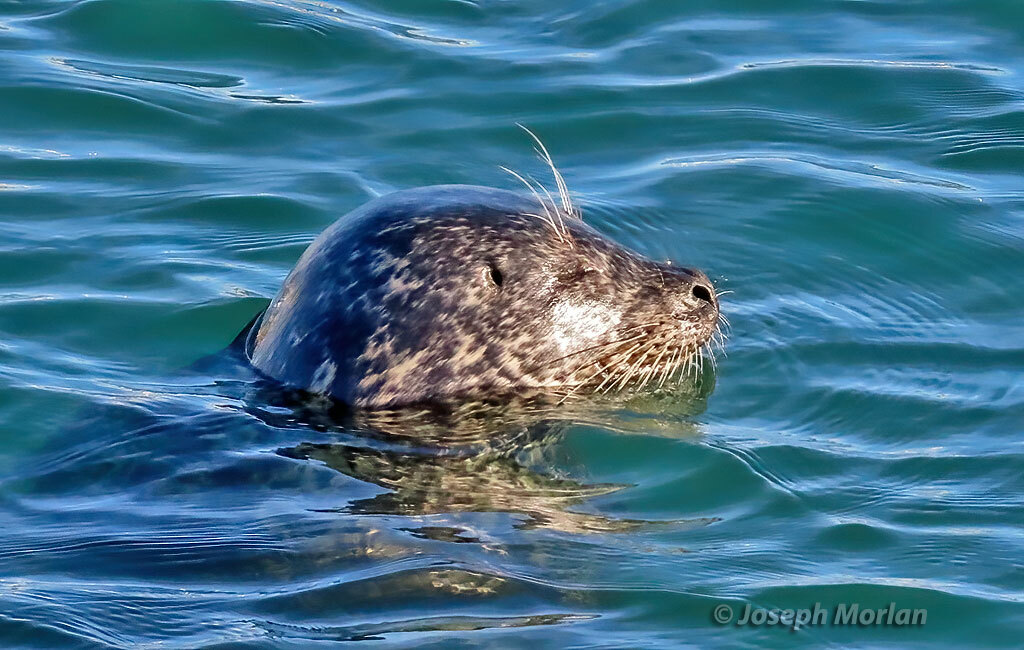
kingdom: Animalia
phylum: Chordata
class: Mammalia
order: Carnivora
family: Phocidae
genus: Phoca
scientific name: Phoca vitulina
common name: Harbor seal
